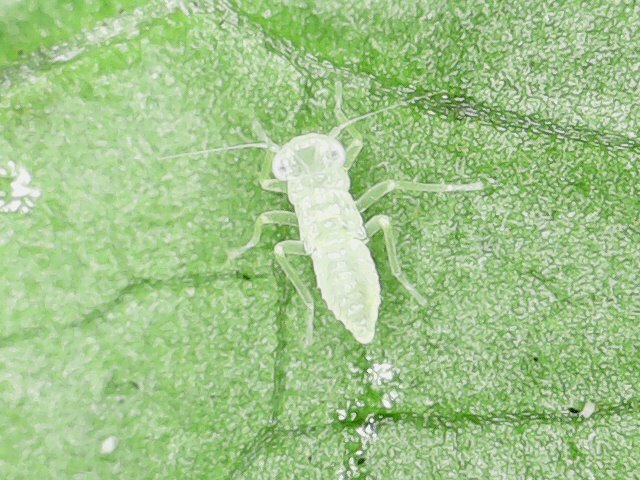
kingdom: Animalia
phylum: Arthropoda
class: Insecta
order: Hemiptera
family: Cicadellidae
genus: Amrasca
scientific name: Amrasca biguttula
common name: Indian cotton jassid
